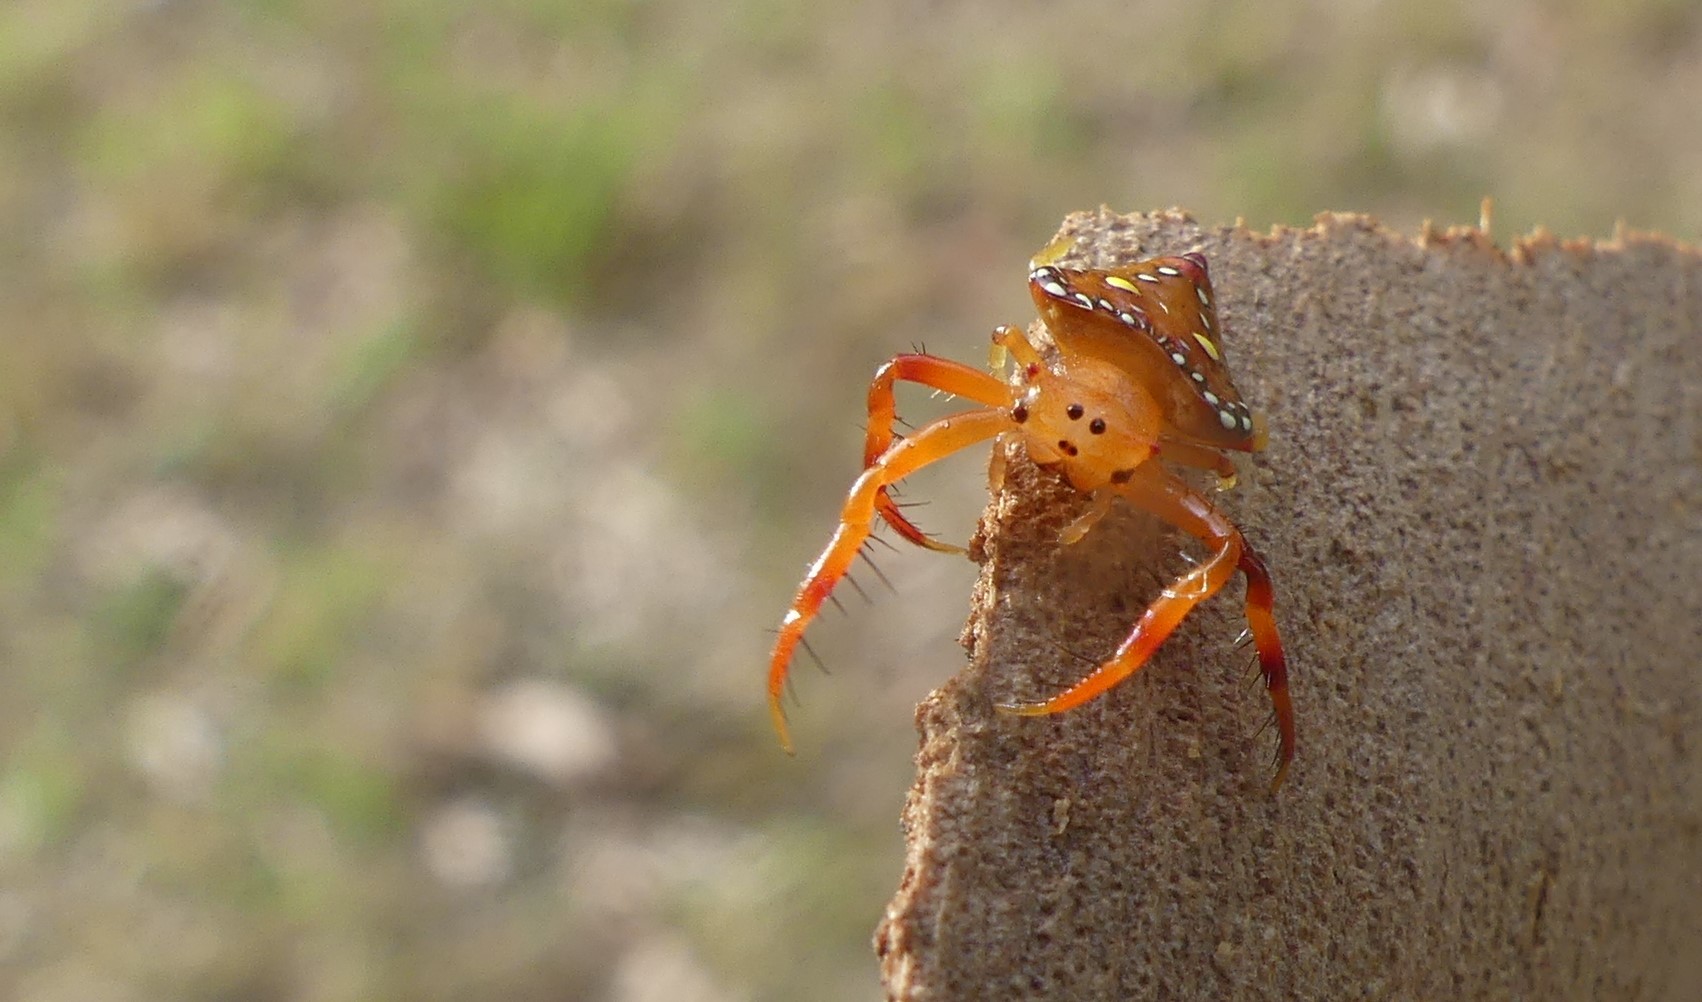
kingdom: Animalia
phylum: Arthropoda
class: Arachnida
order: Araneae
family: Arkyidae
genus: Arkys
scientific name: Arkys lancearius
